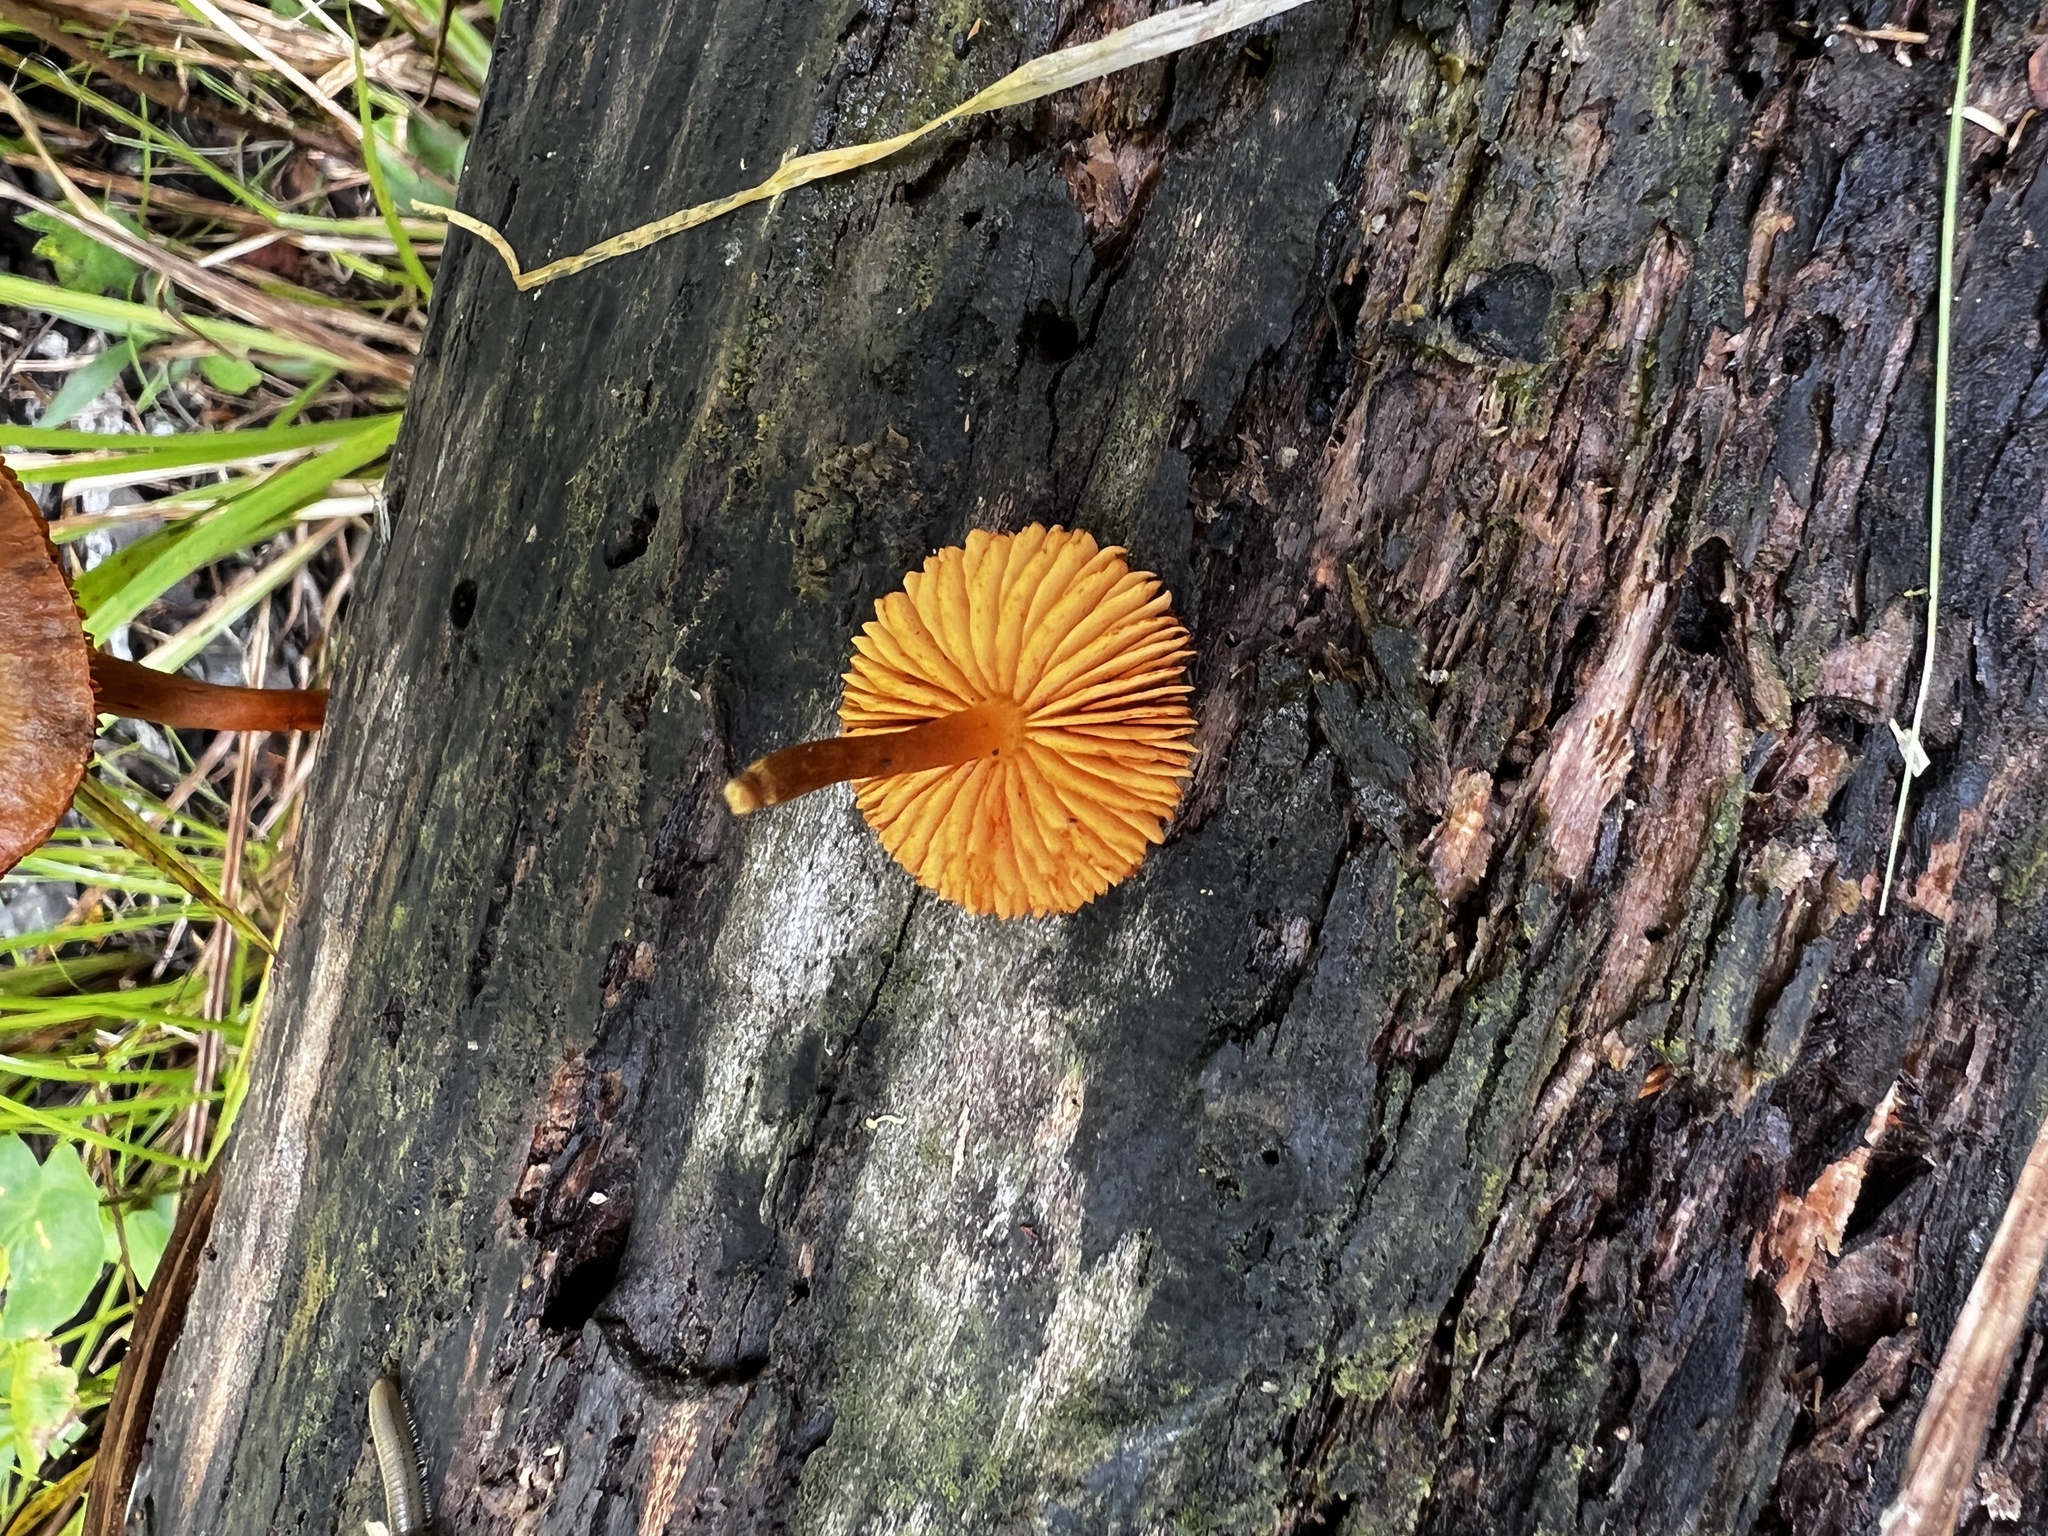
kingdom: Fungi
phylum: Basidiomycota
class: Agaricomycetes
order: Agaricales
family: Hymenogastraceae
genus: Gymnopilus
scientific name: Gymnopilus ochraceus
